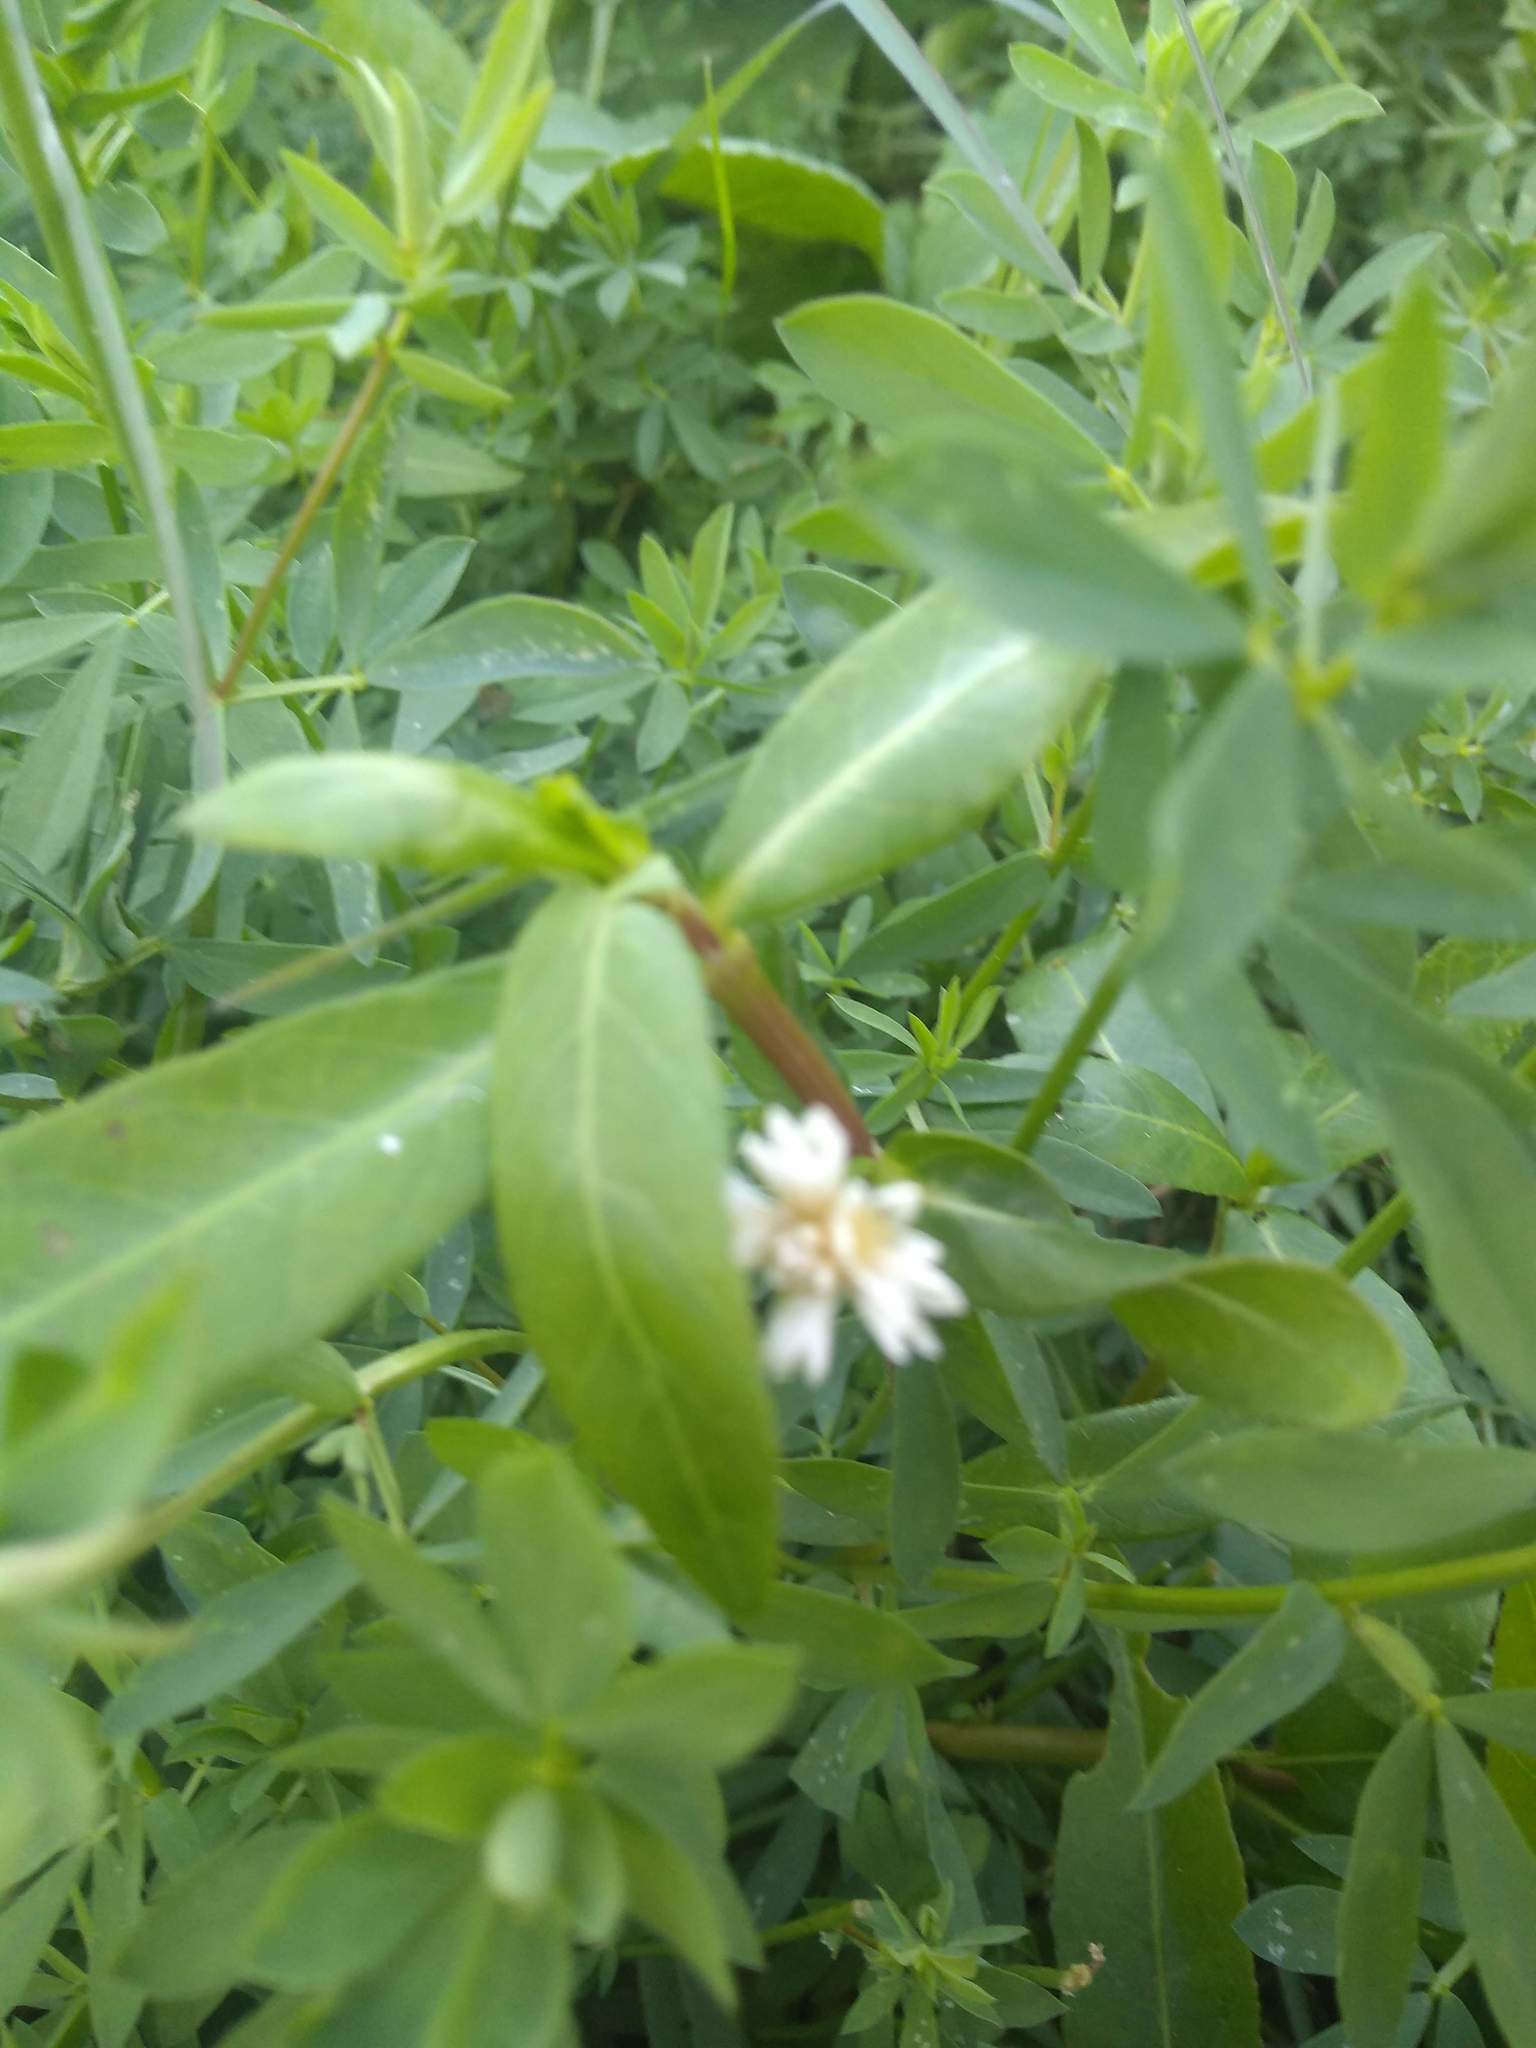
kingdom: Plantae
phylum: Tracheophyta
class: Magnoliopsida
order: Caryophyllales
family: Amaranthaceae
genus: Alternanthera
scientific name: Alternanthera philoxeroides
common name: Alligatorweed
